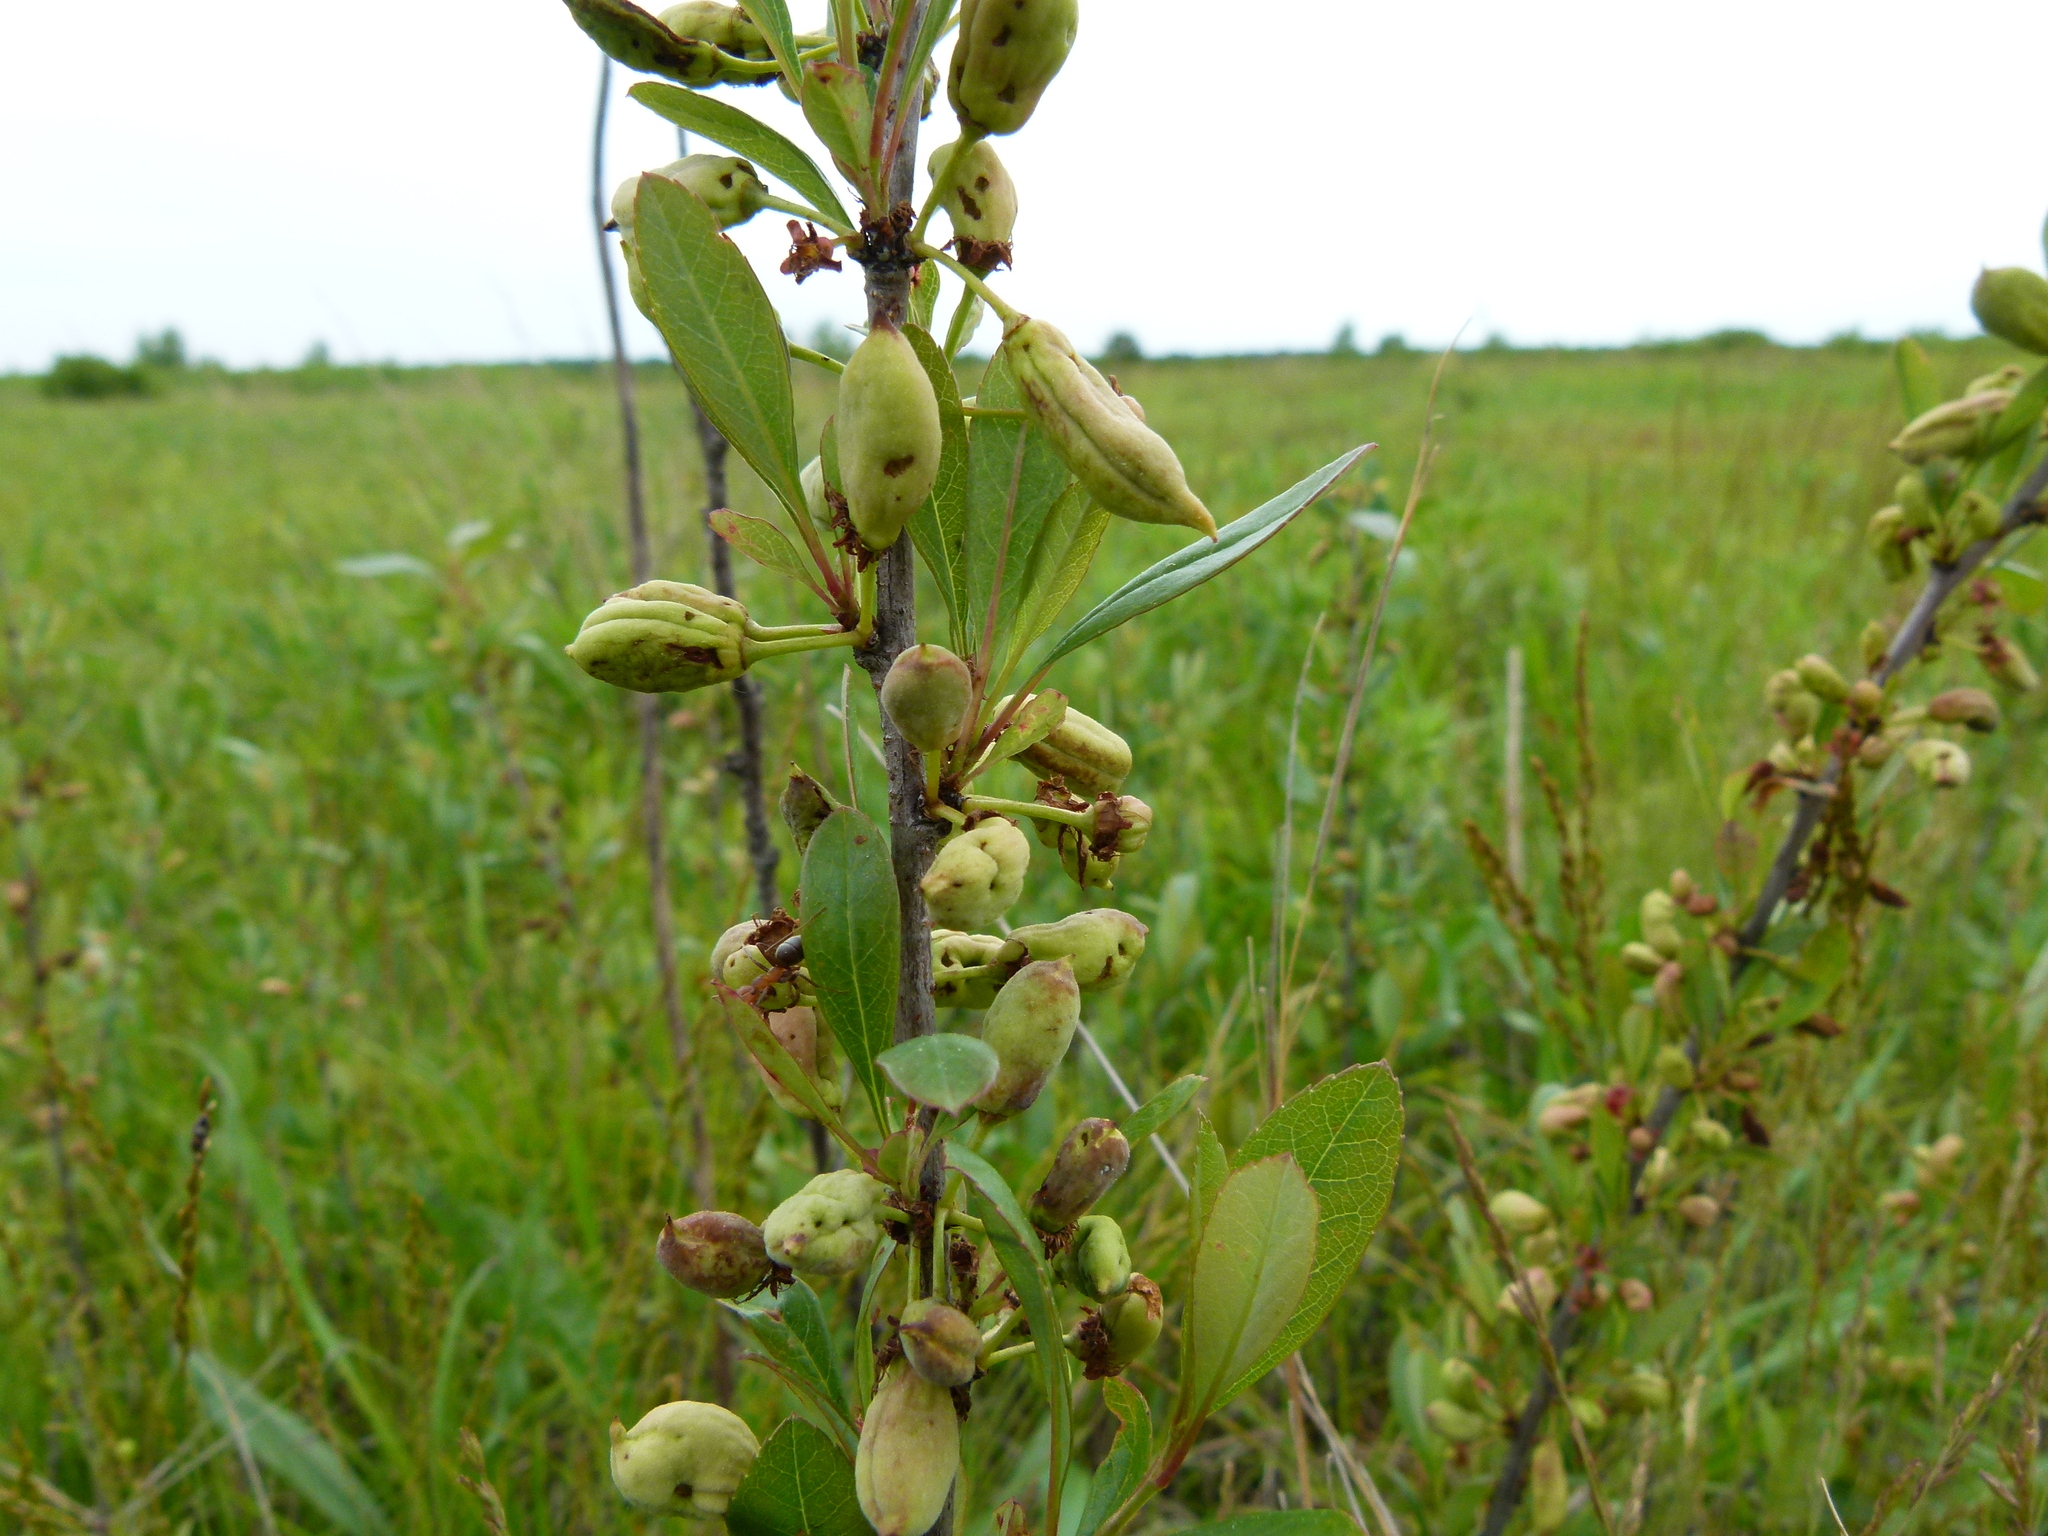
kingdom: Plantae
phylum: Tracheophyta
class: Magnoliopsida
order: Rosales
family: Rosaceae
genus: Prunus
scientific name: Prunus susquehanae
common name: Sesquehana sandcherry
